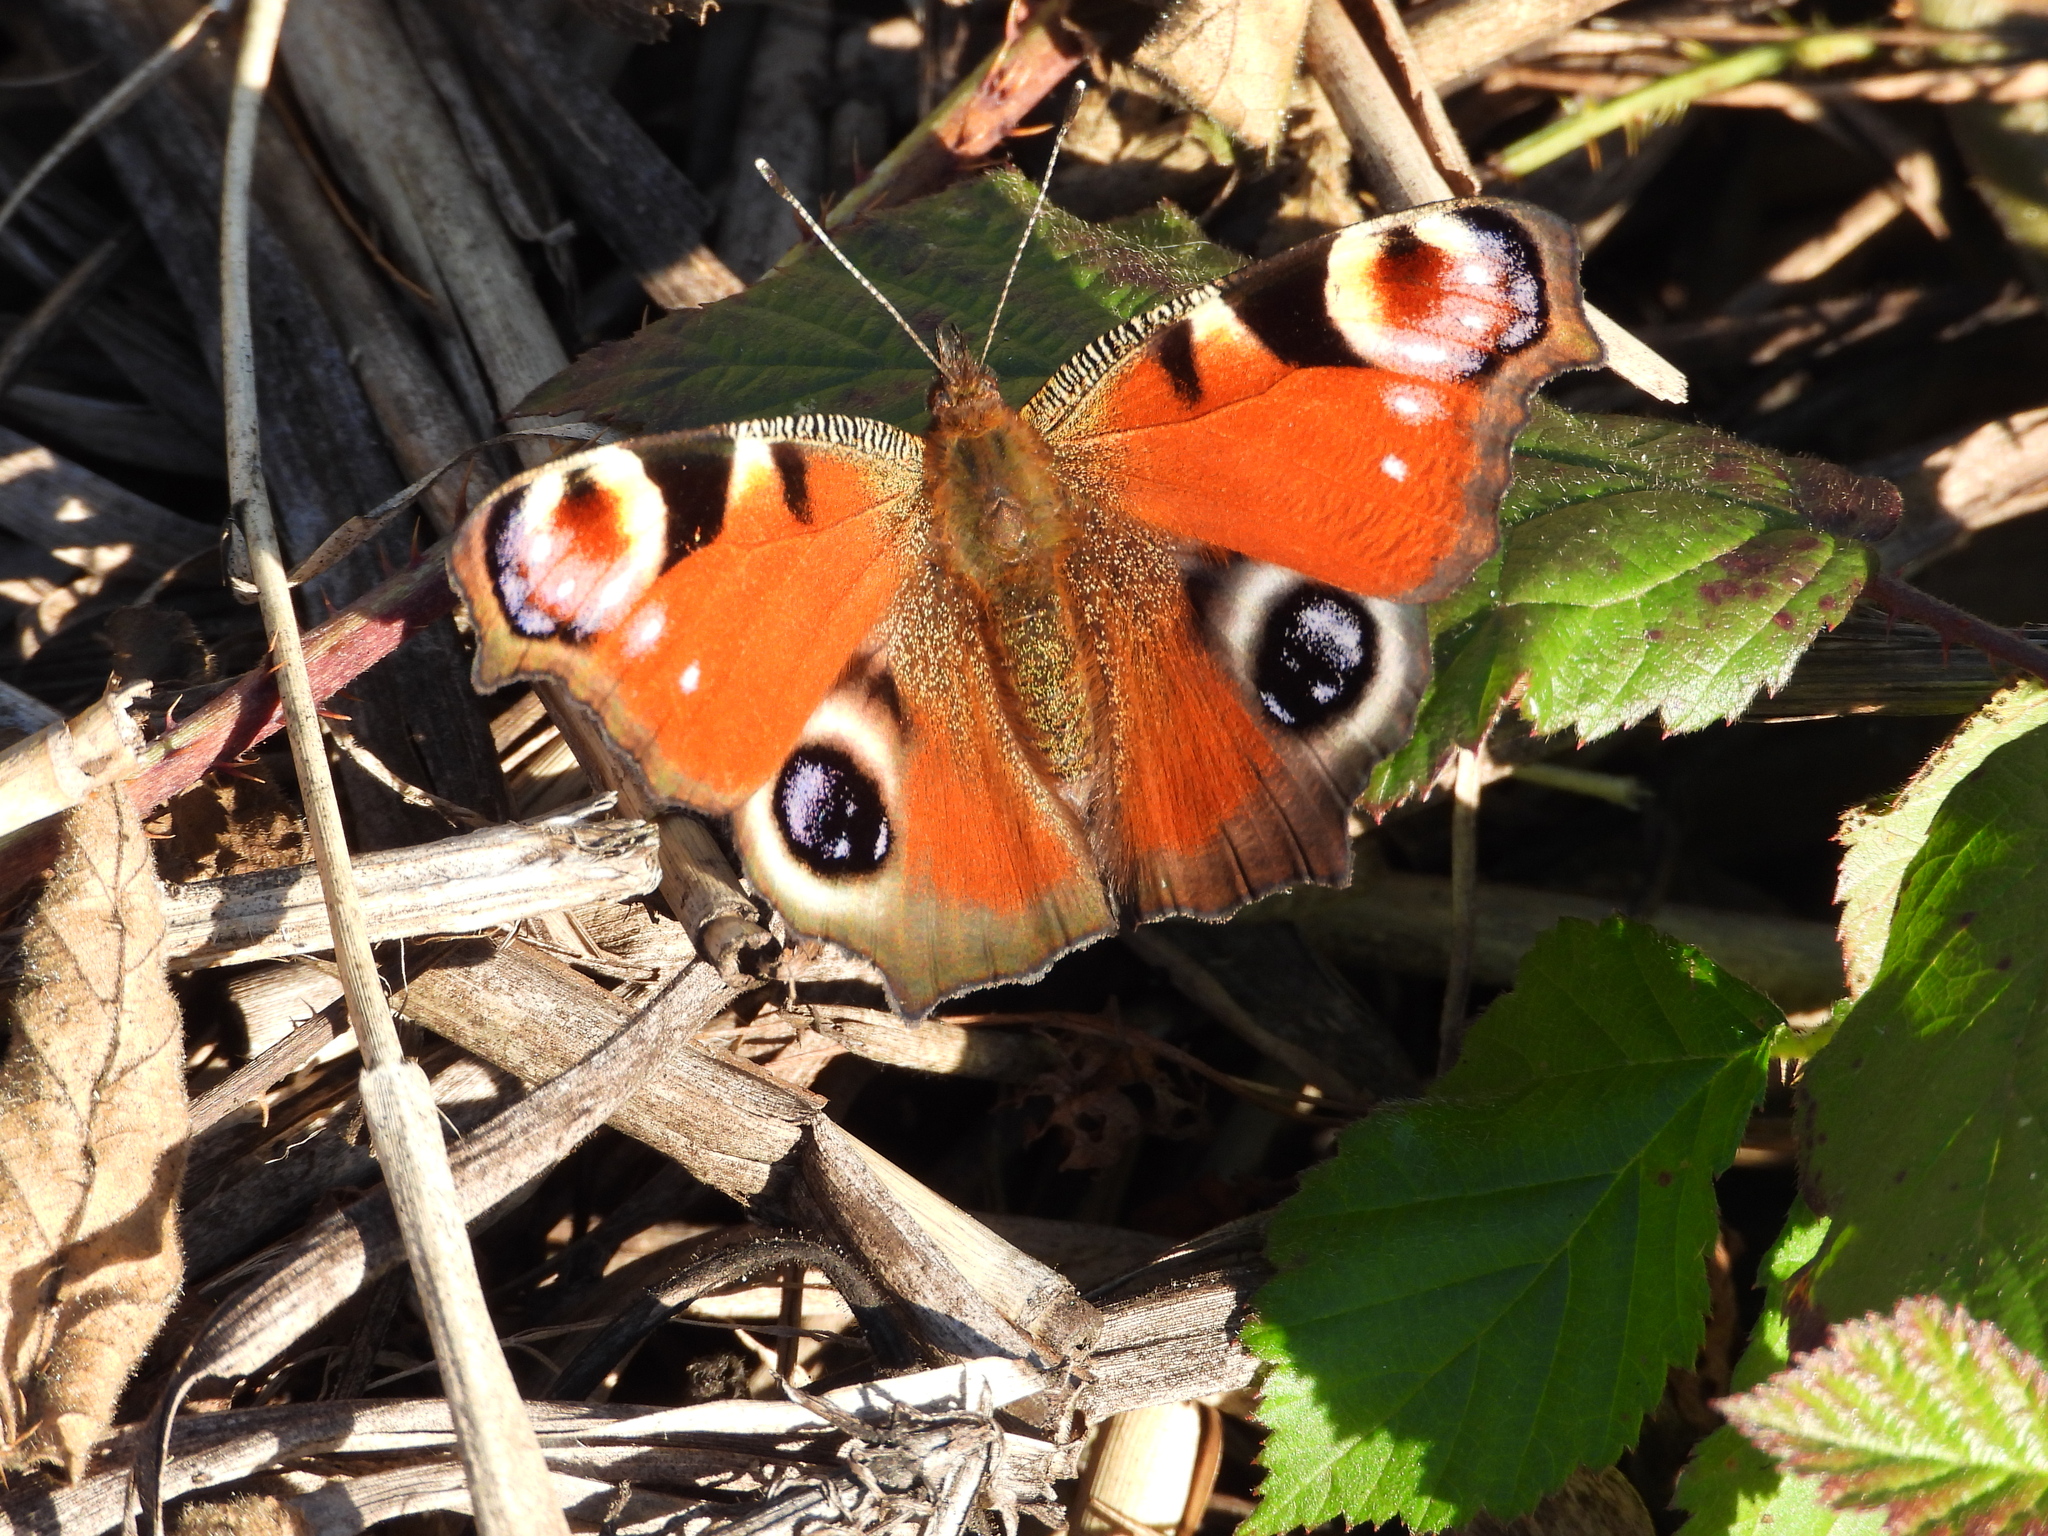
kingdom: Animalia
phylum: Arthropoda
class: Insecta
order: Lepidoptera
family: Nymphalidae
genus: Aglais
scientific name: Aglais io
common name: Peacock
